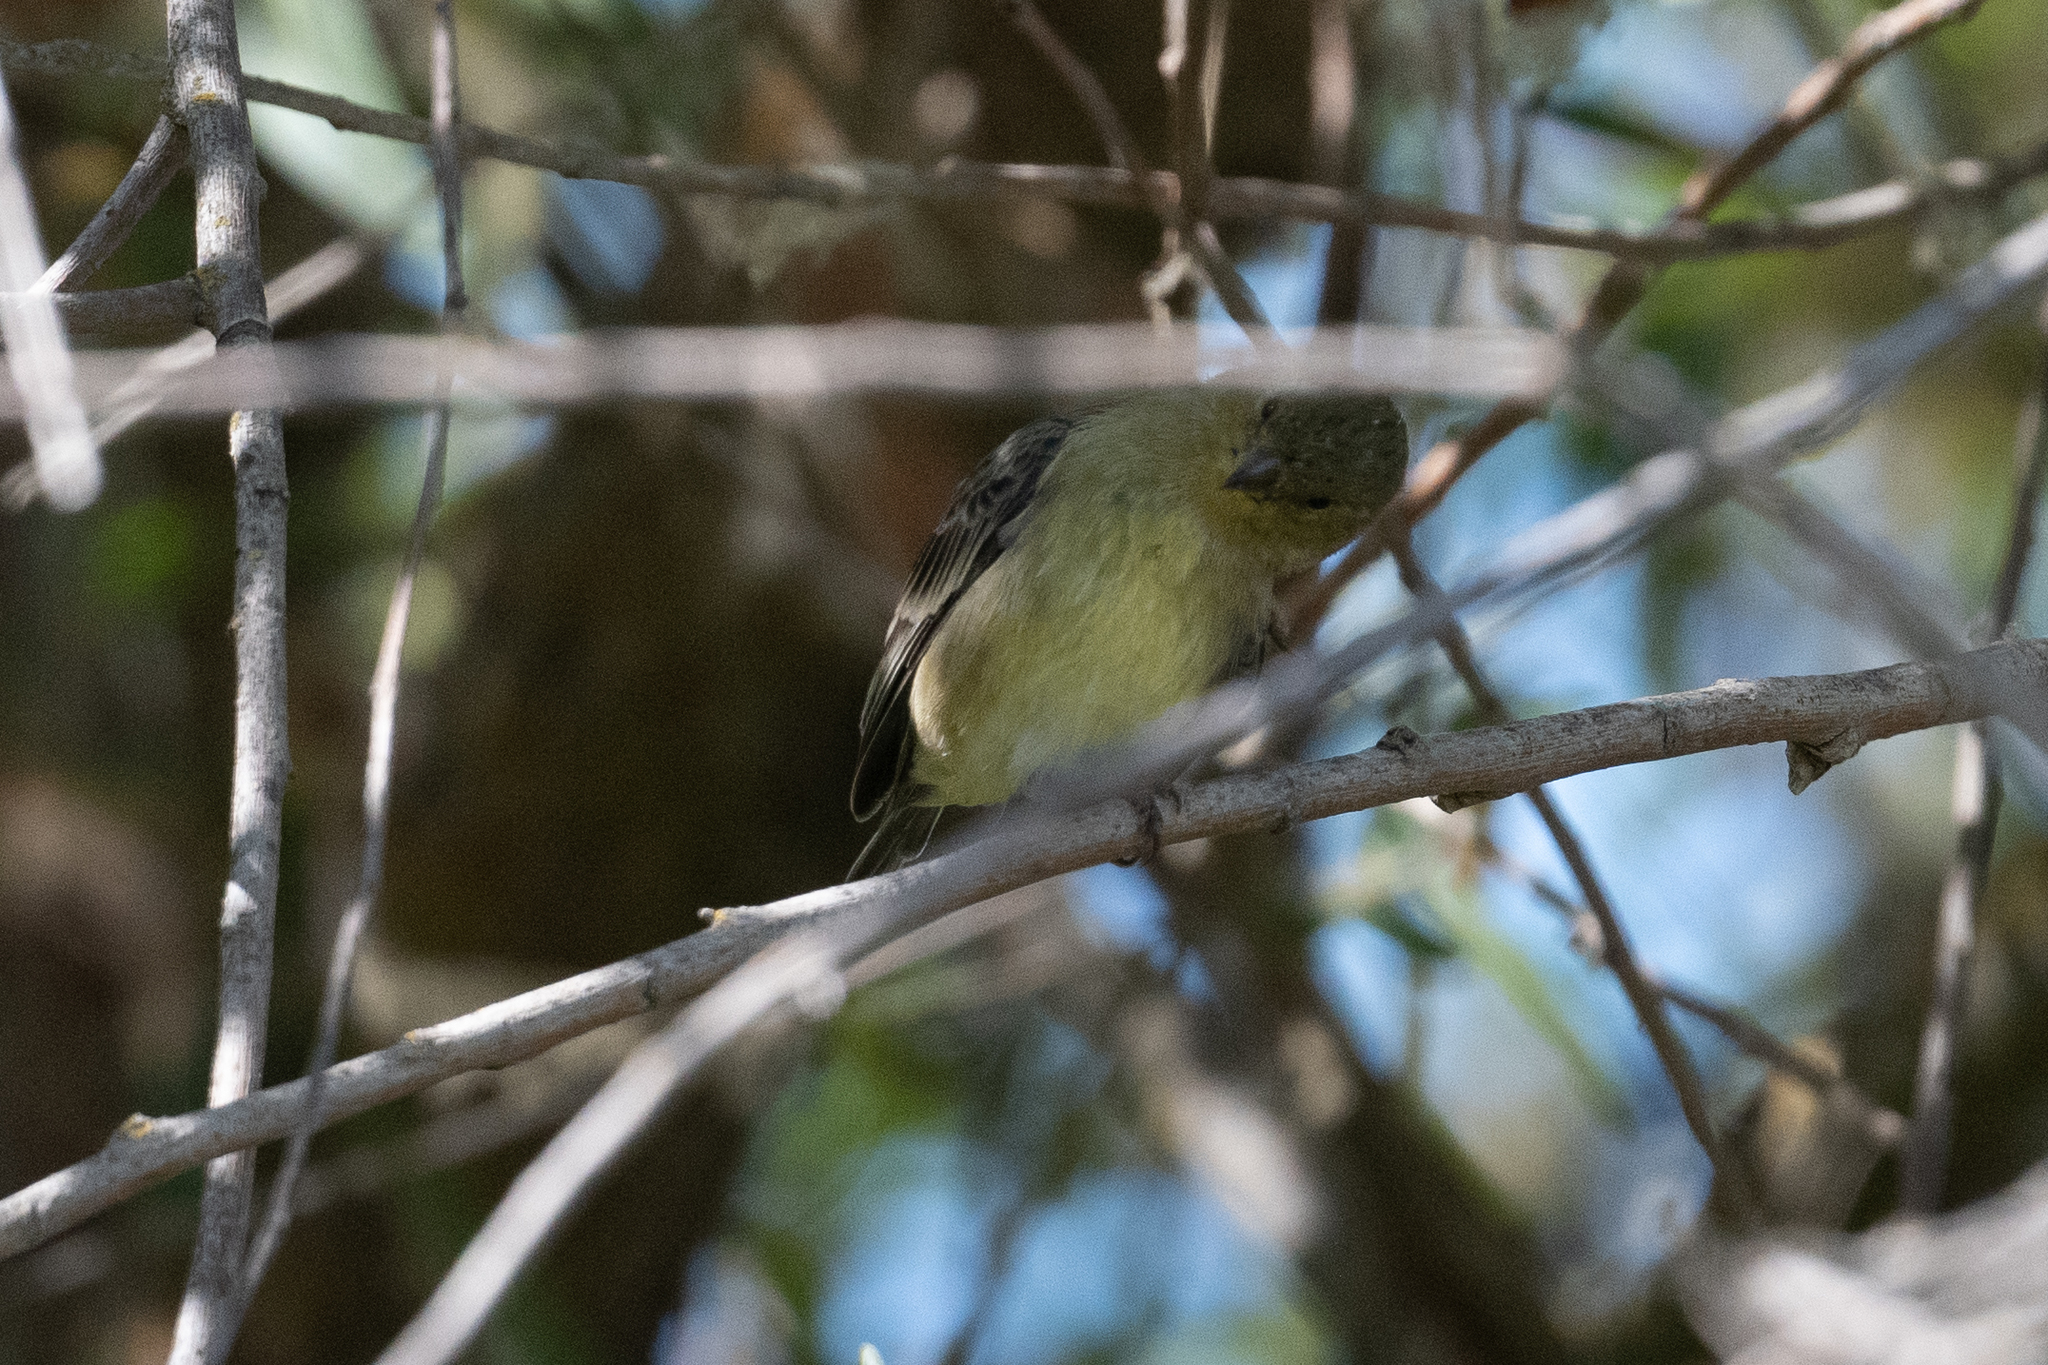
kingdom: Animalia
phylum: Chordata
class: Aves
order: Passeriformes
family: Fringillidae
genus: Spinus
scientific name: Spinus psaltria
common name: Lesser goldfinch
